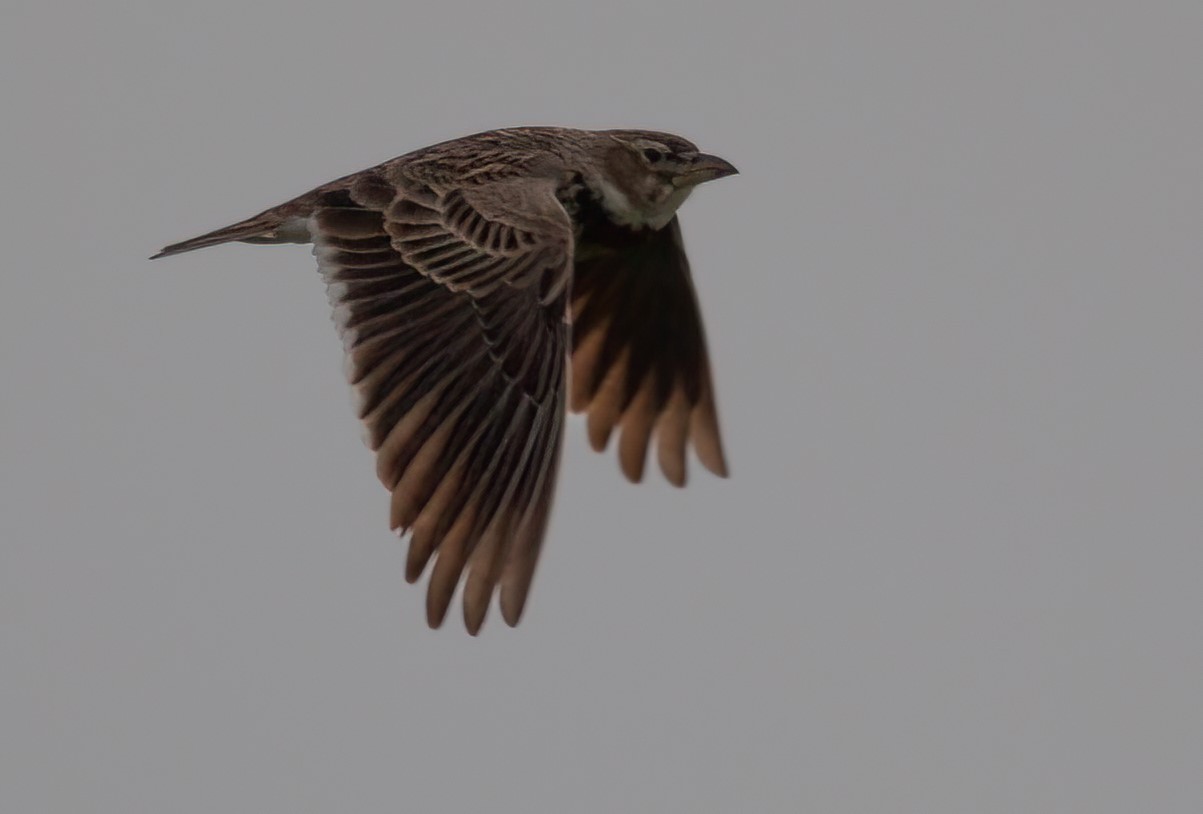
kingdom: Animalia
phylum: Chordata
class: Aves
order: Passeriformes
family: Alaudidae
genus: Melanocorypha
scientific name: Melanocorypha calandra
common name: Calandra lark
